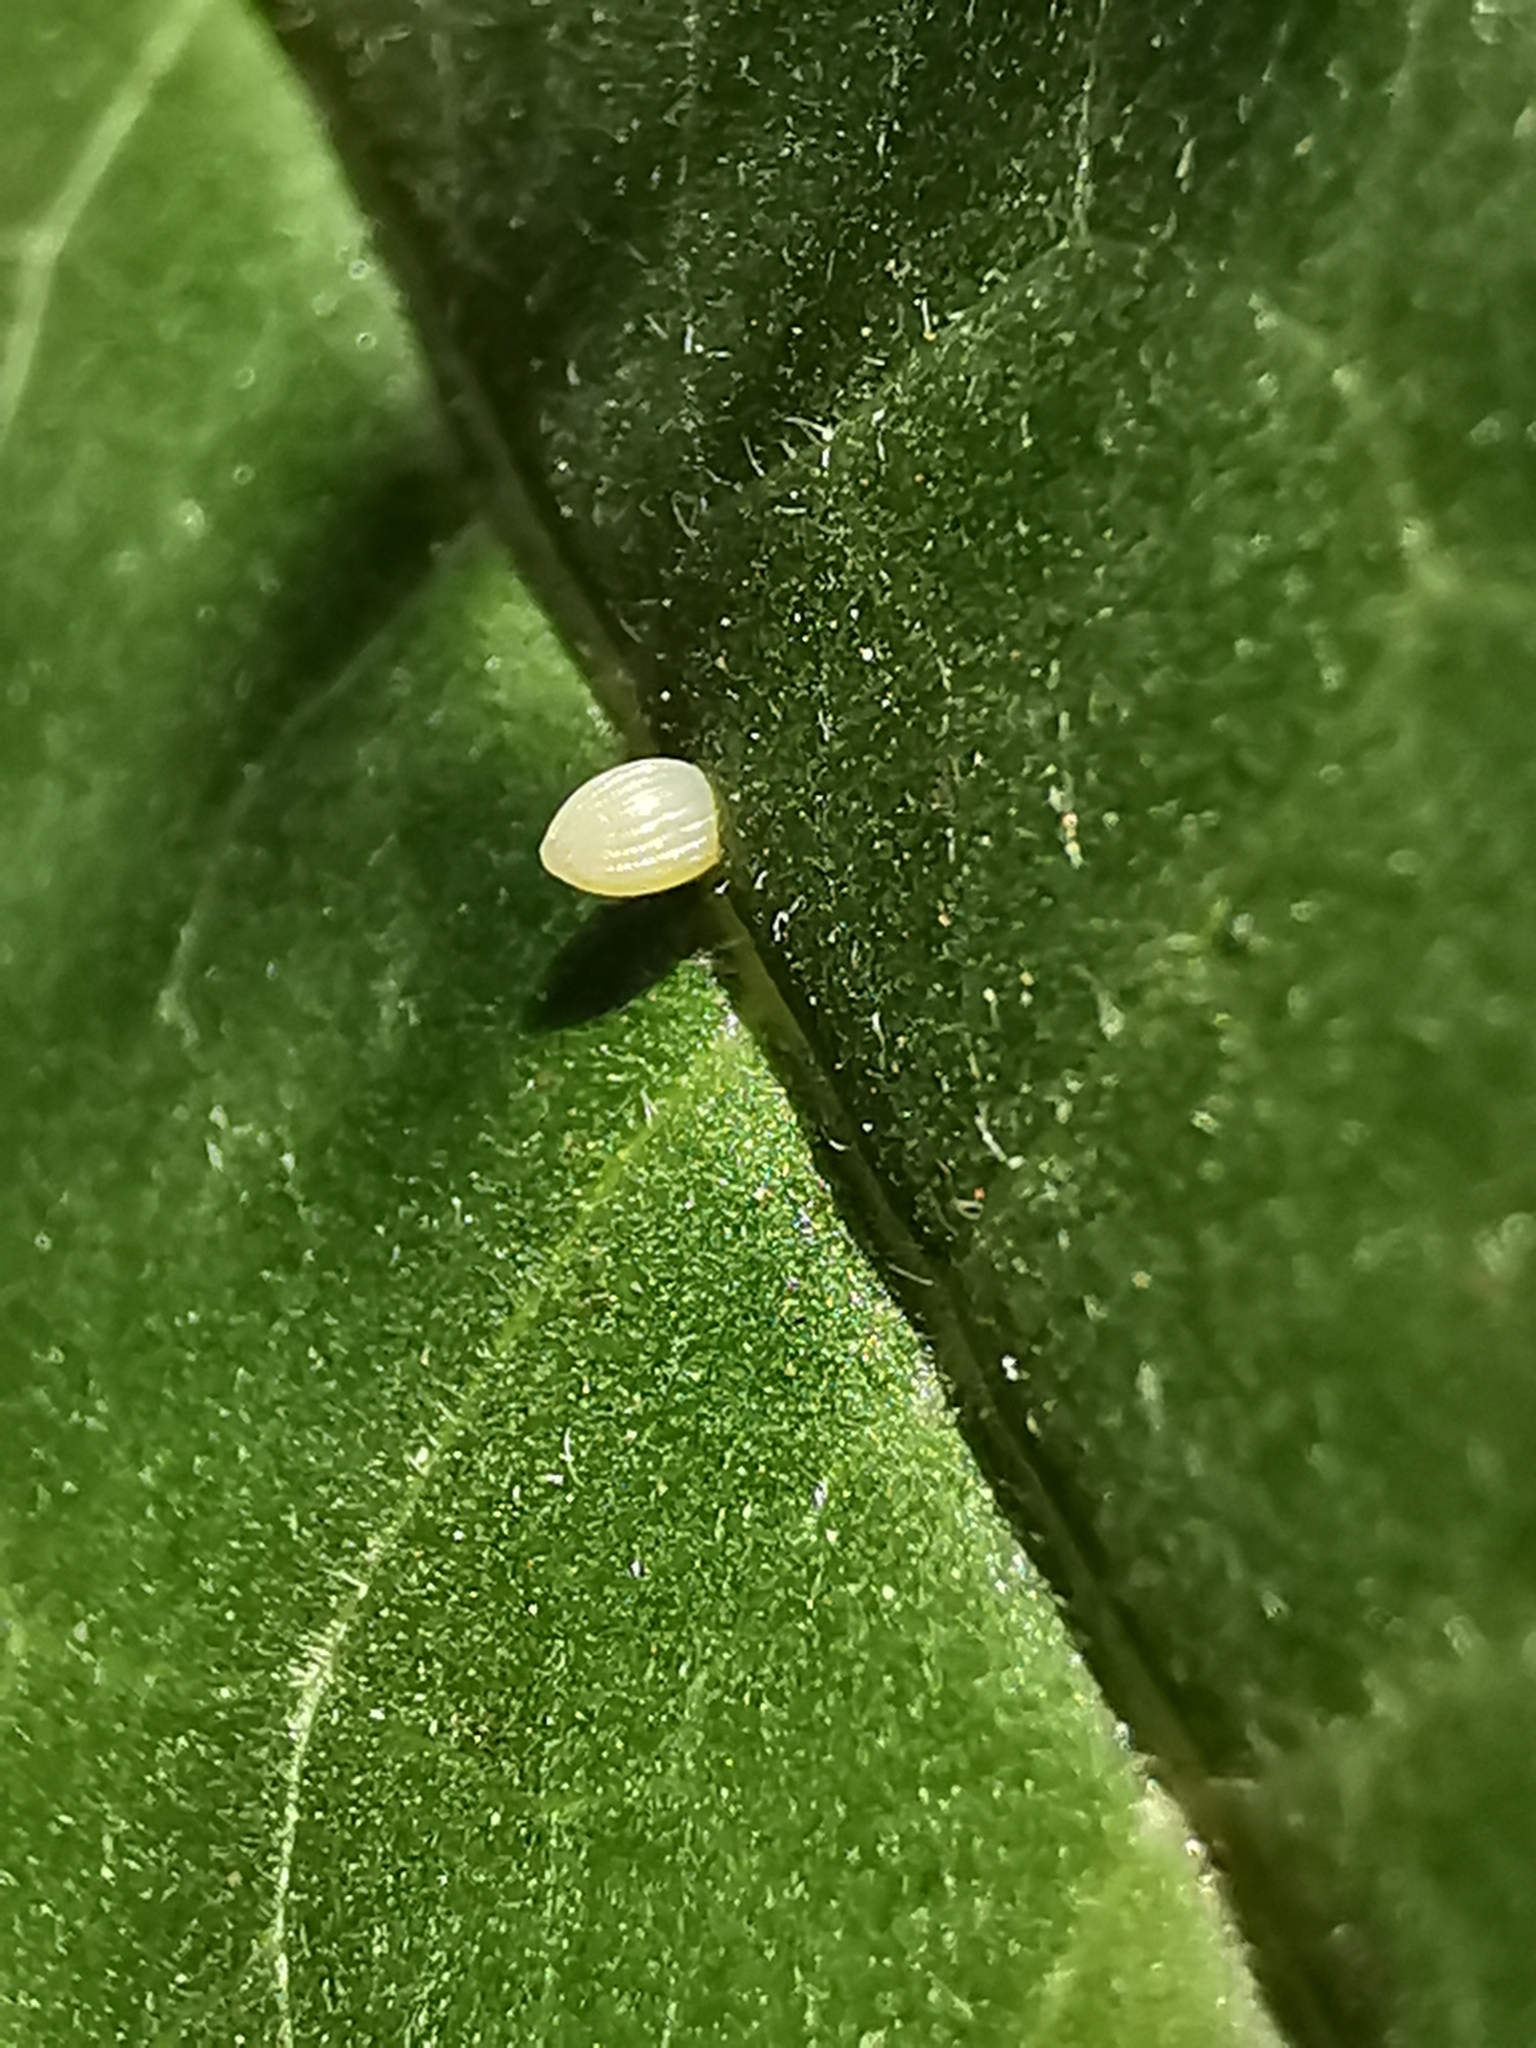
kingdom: Animalia
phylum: Arthropoda
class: Insecta
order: Lepidoptera
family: Nymphalidae
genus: Danaus
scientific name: Danaus plexippus
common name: Monarch
